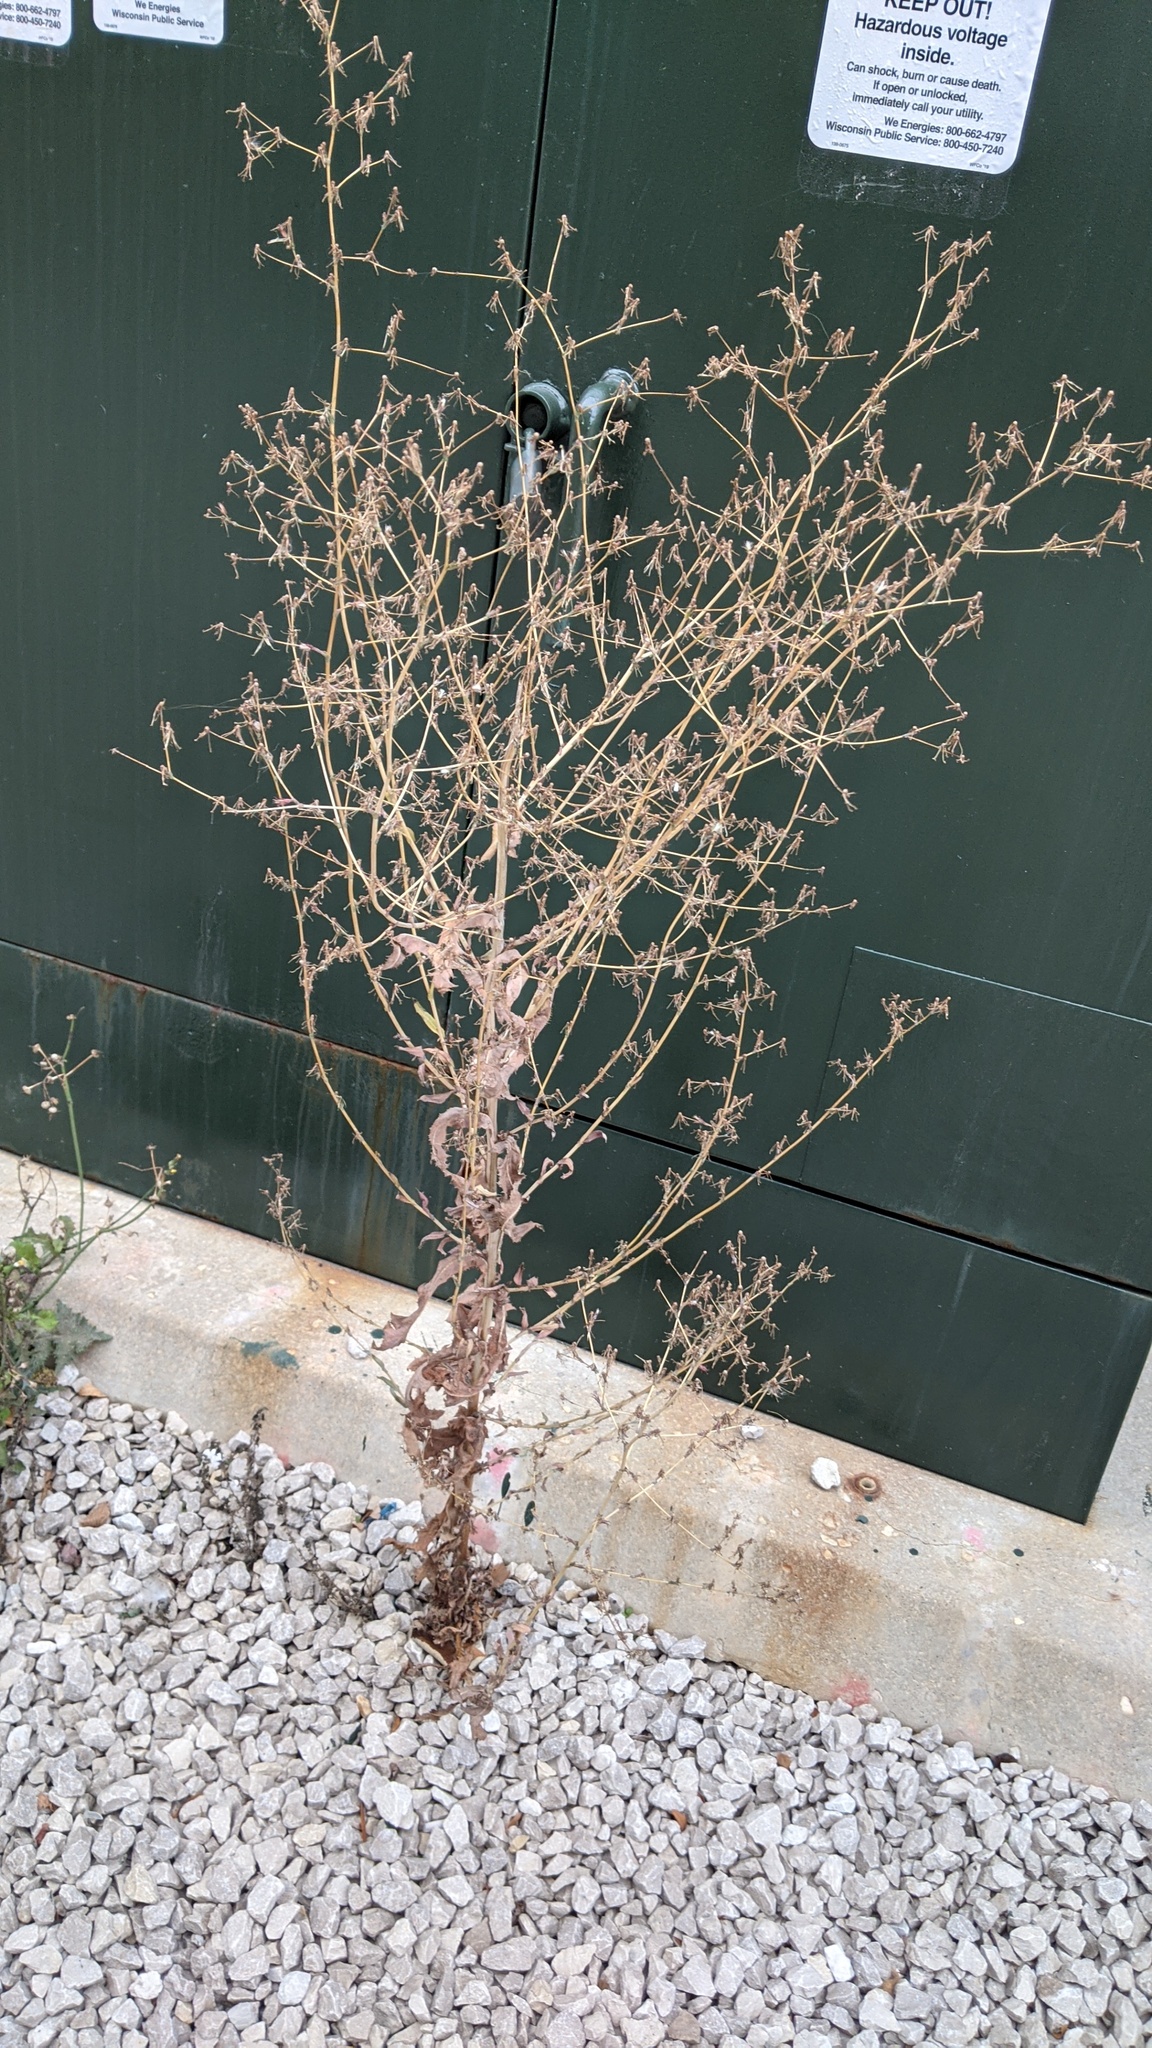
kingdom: Plantae
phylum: Tracheophyta
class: Magnoliopsida
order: Asterales
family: Asteraceae
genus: Lactuca
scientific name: Lactuca serriola
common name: Prickly lettuce
